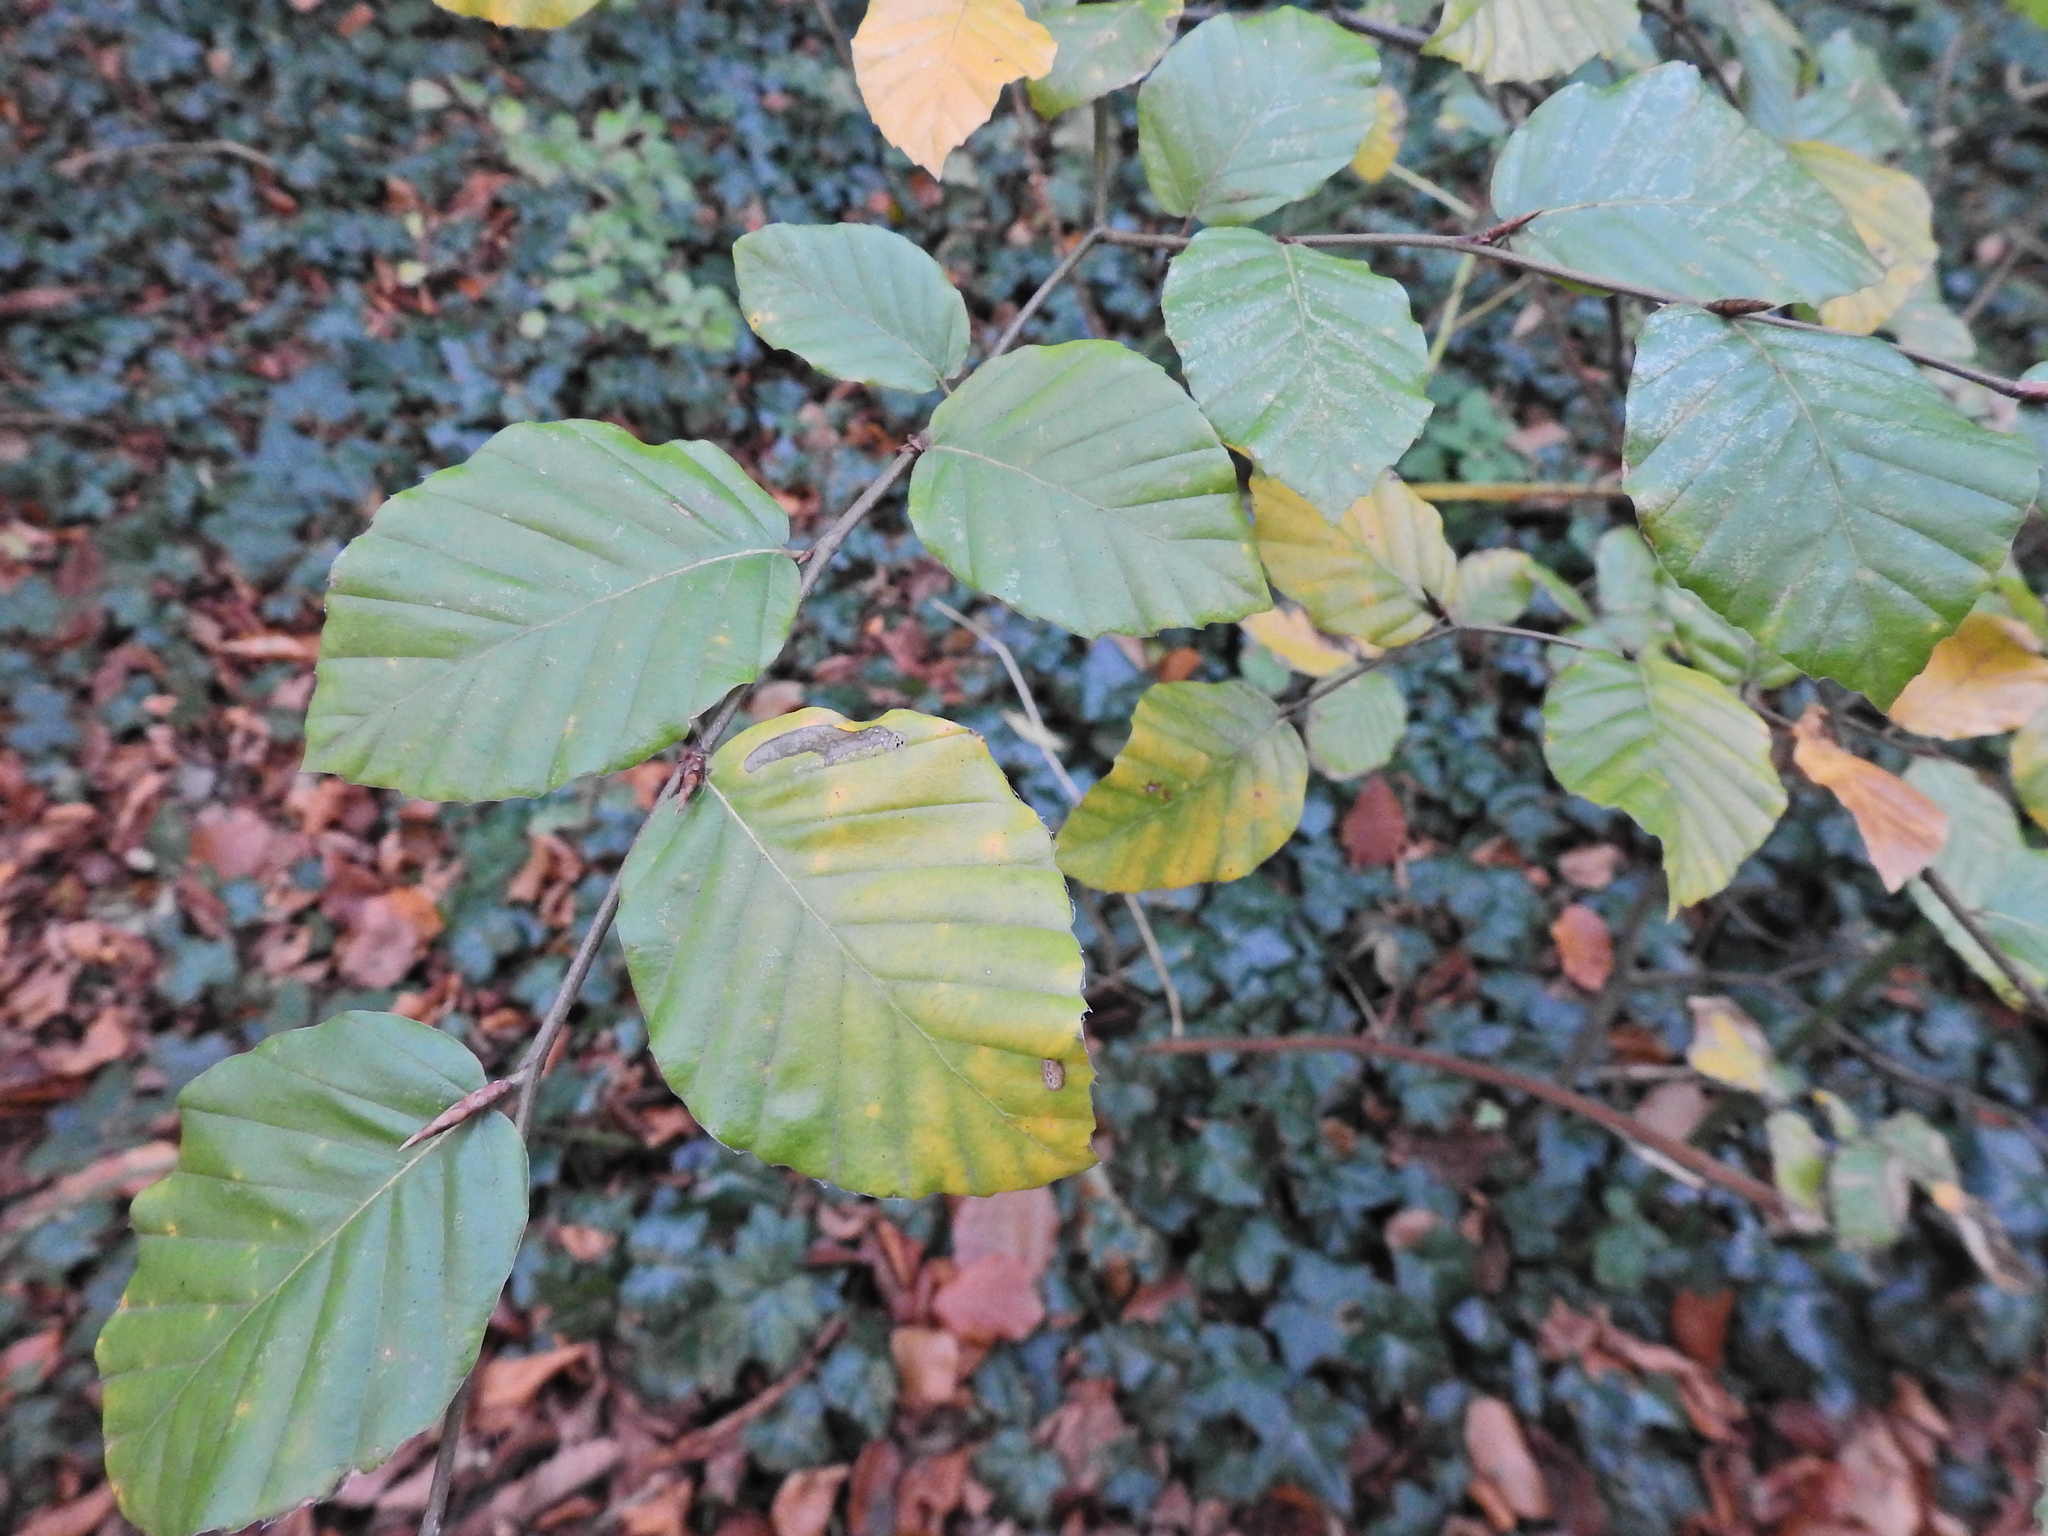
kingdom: Plantae
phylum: Tracheophyta
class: Magnoliopsida
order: Fagales
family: Fagaceae
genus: Fagus
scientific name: Fagus sylvatica
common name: Beech
